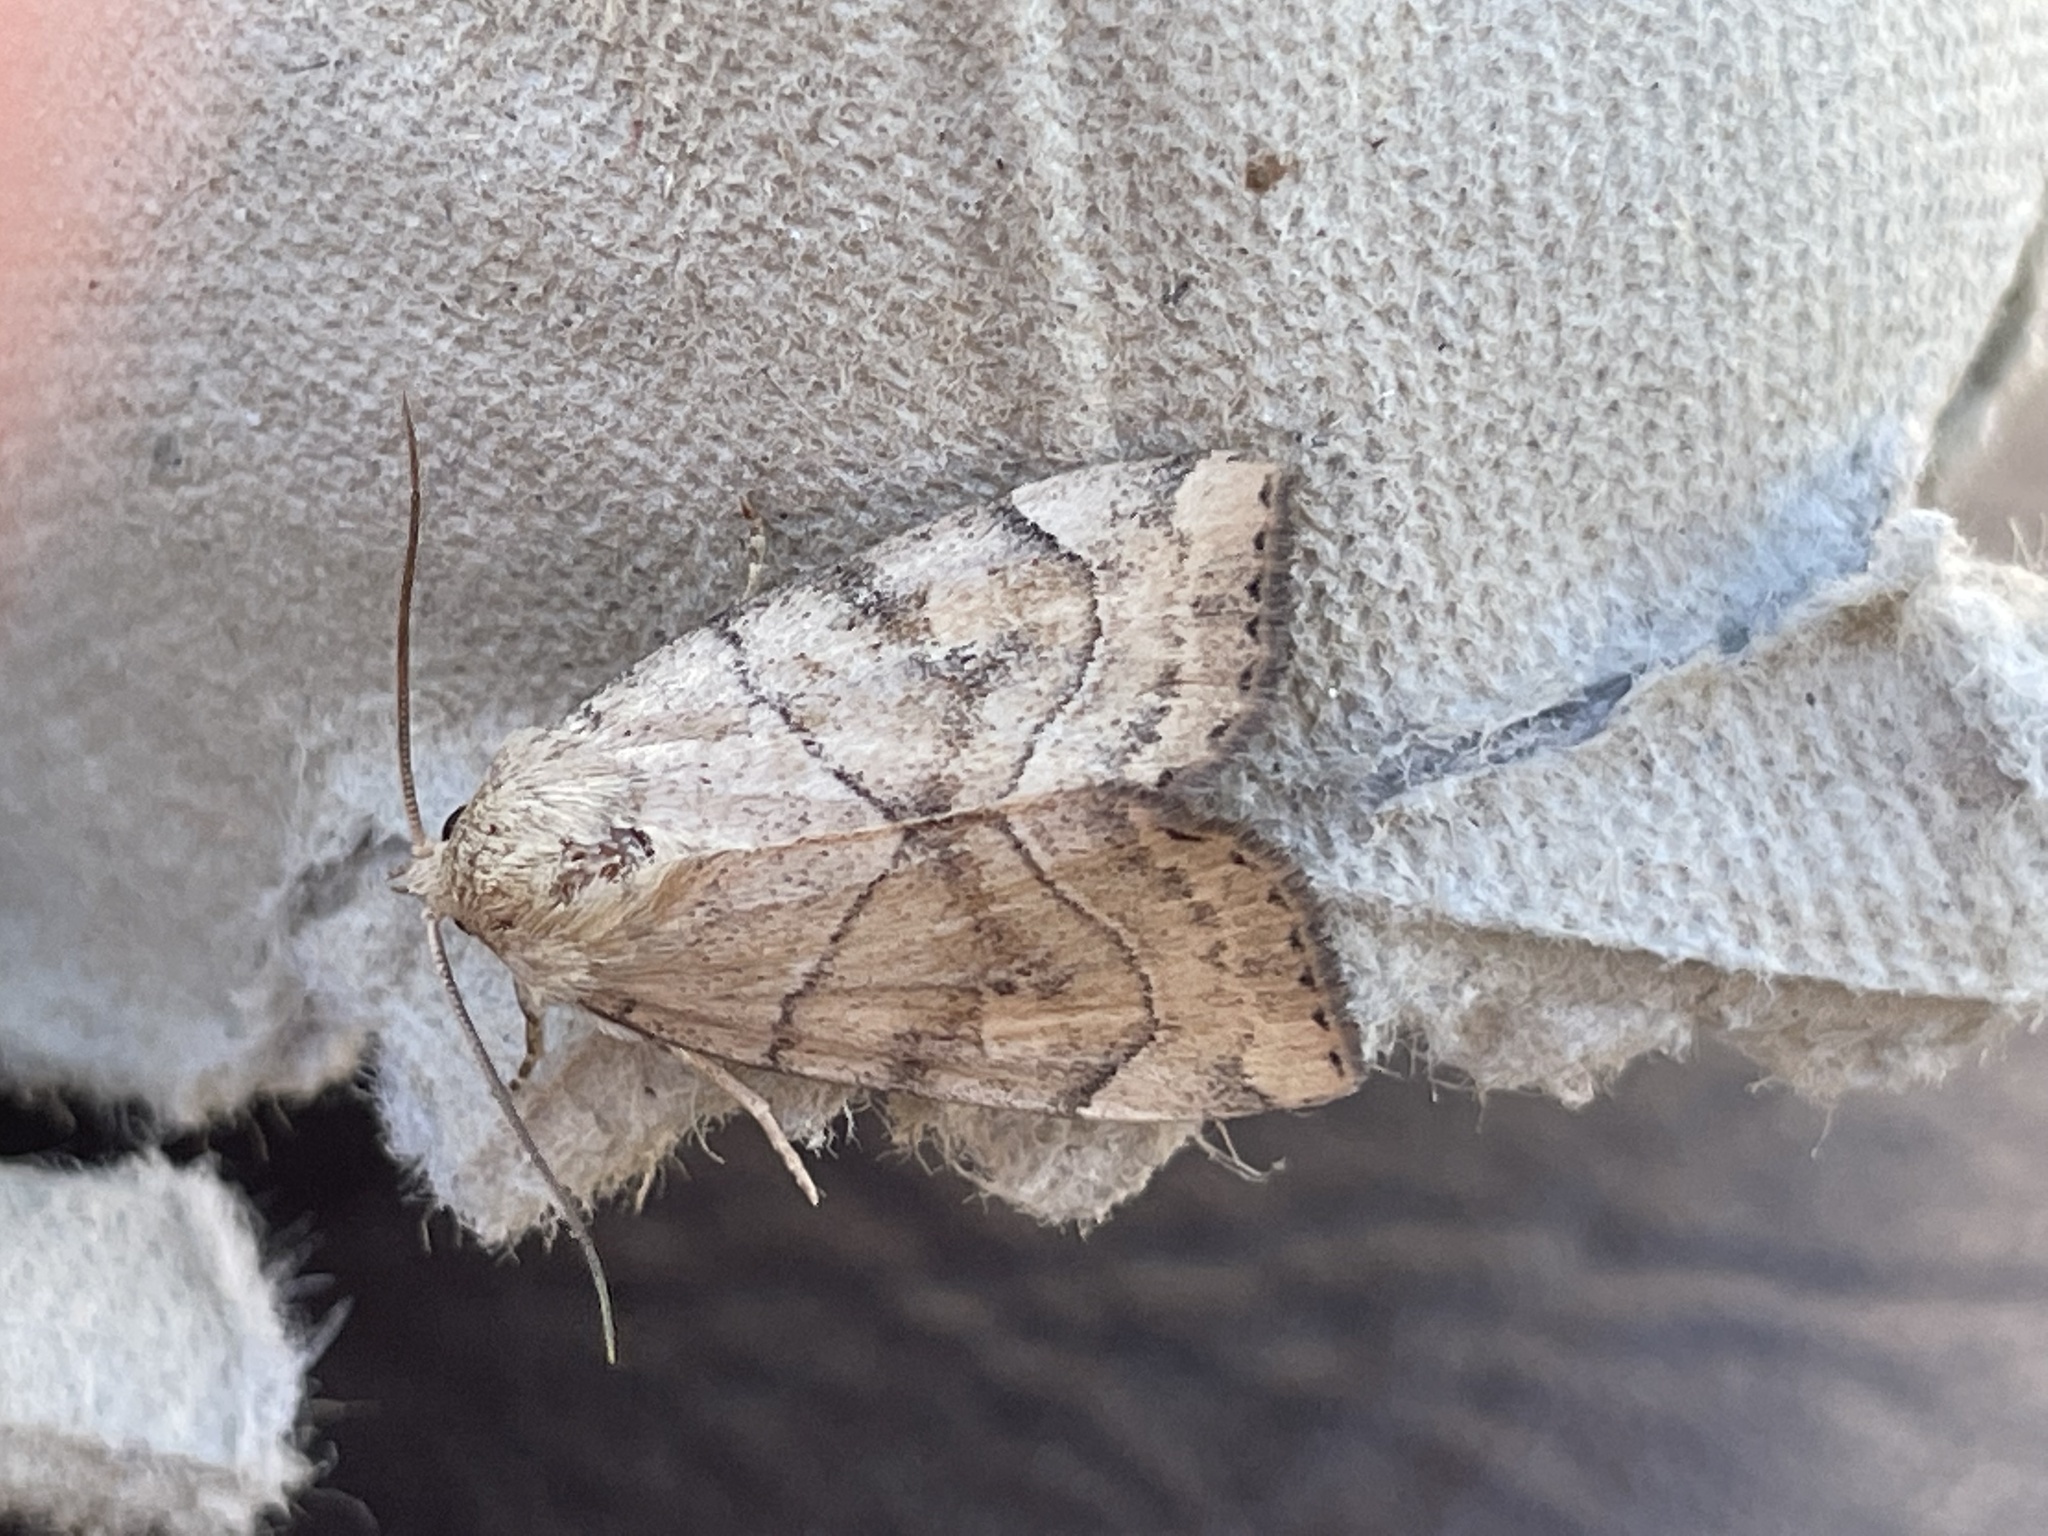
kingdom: Animalia
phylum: Arthropoda
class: Insecta
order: Lepidoptera
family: Noctuidae
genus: Cosmia
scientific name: Cosmia trapezina
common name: Dun-bar
